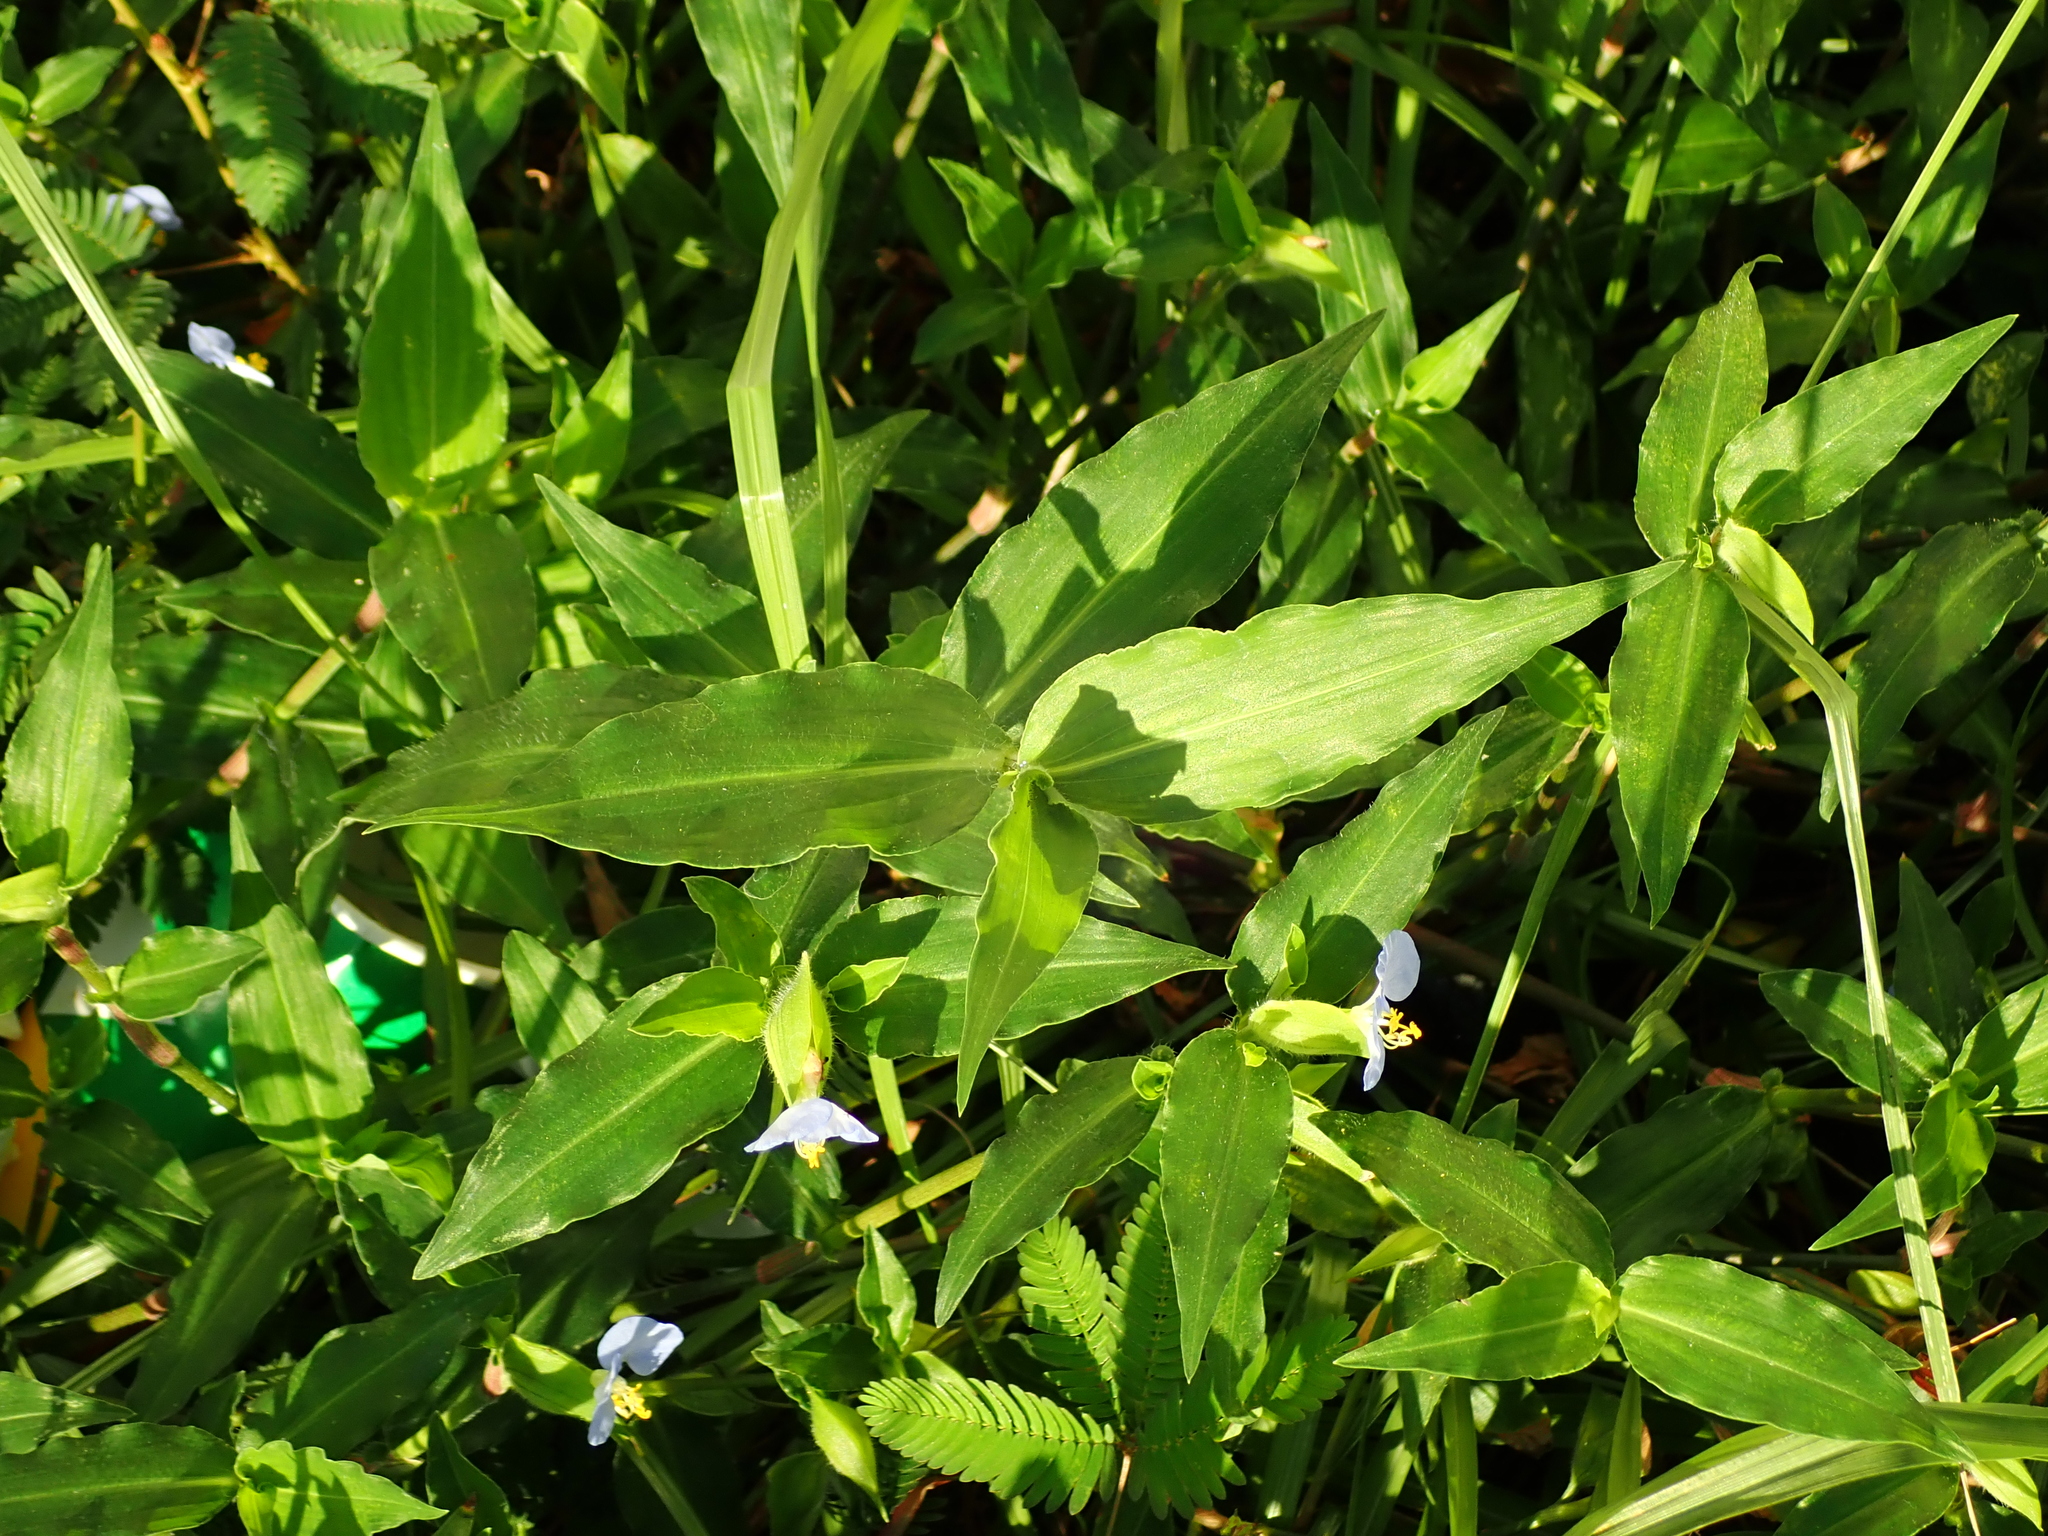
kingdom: Plantae
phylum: Tracheophyta
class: Liliopsida
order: Commelinales
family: Commelinaceae
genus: Commelina
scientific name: Commelina erecta
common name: Blousel blommetjie
